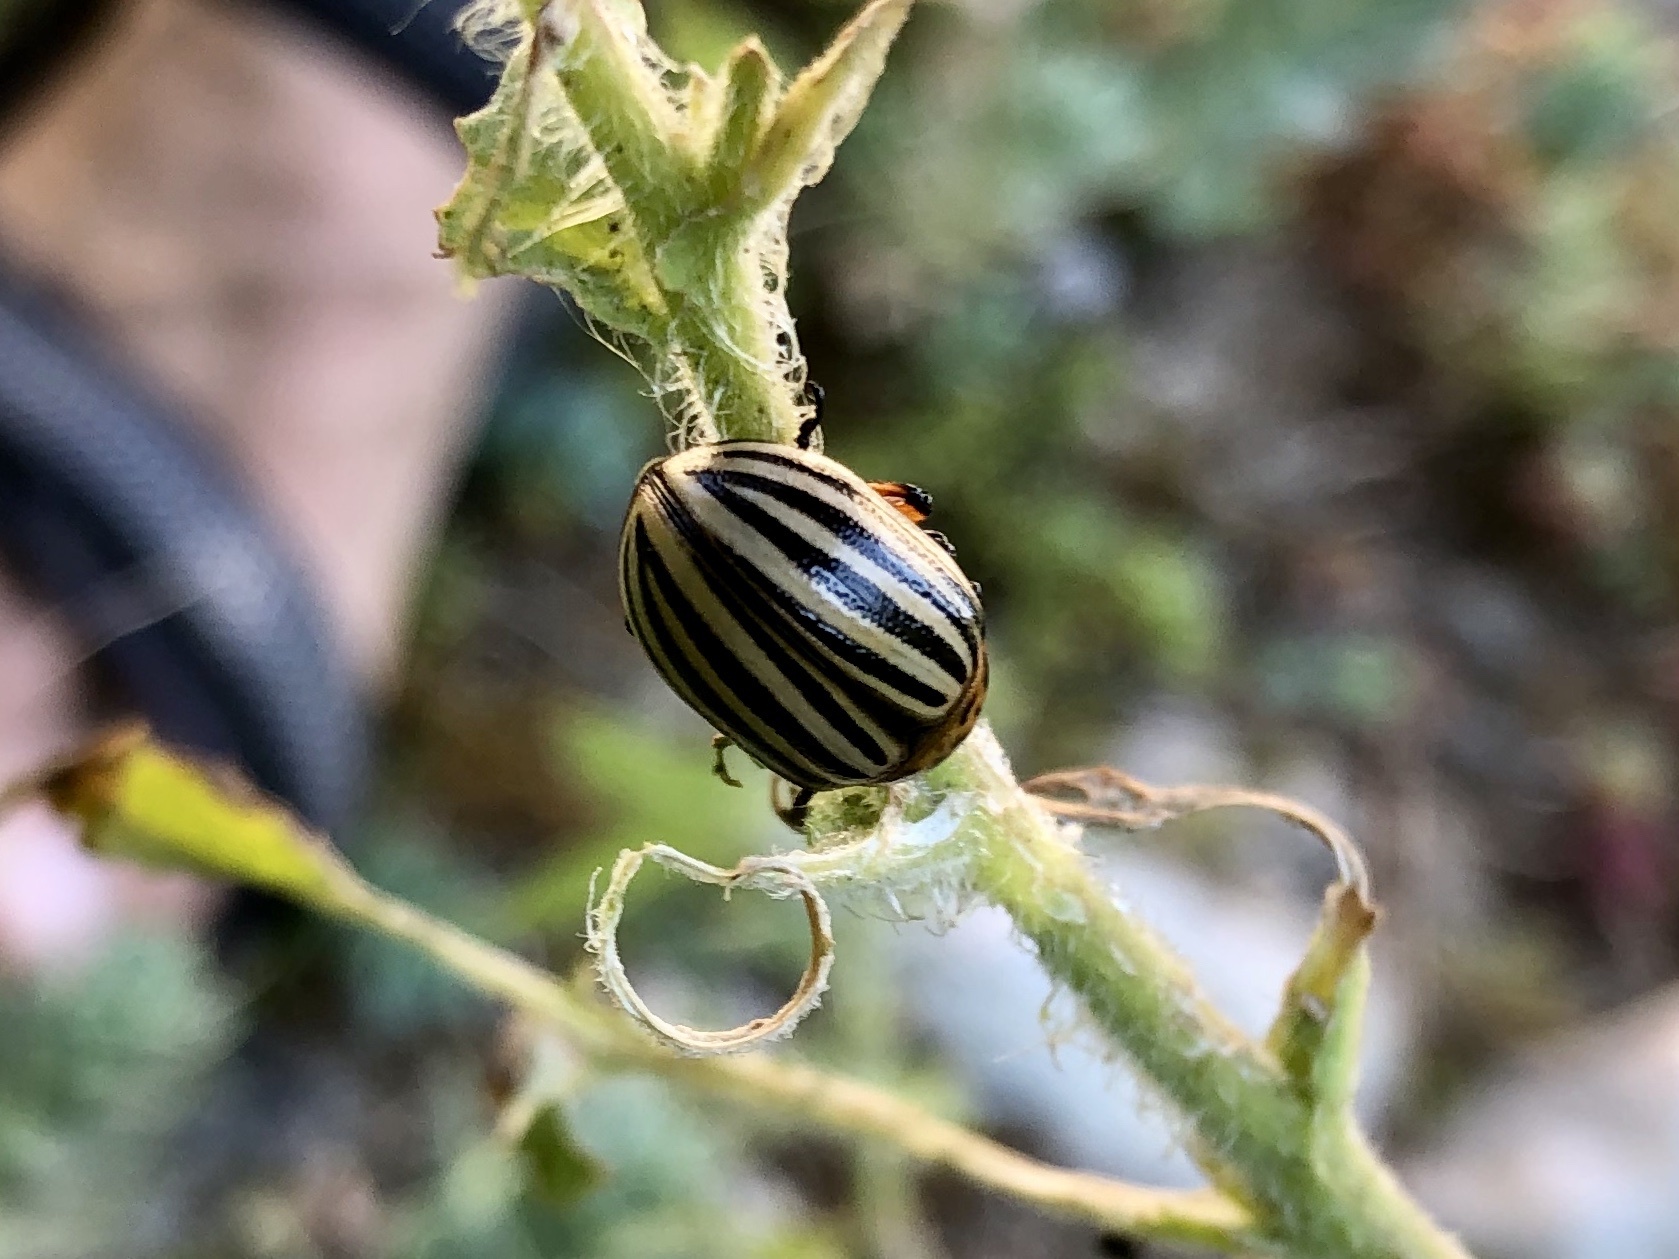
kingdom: Animalia
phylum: Arthropoda
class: Insecta
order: Coleoptera
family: Chrysomelidae
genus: Leptinotarsa
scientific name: Leptinotarsa decemlineata
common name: Colorado potato beetle
